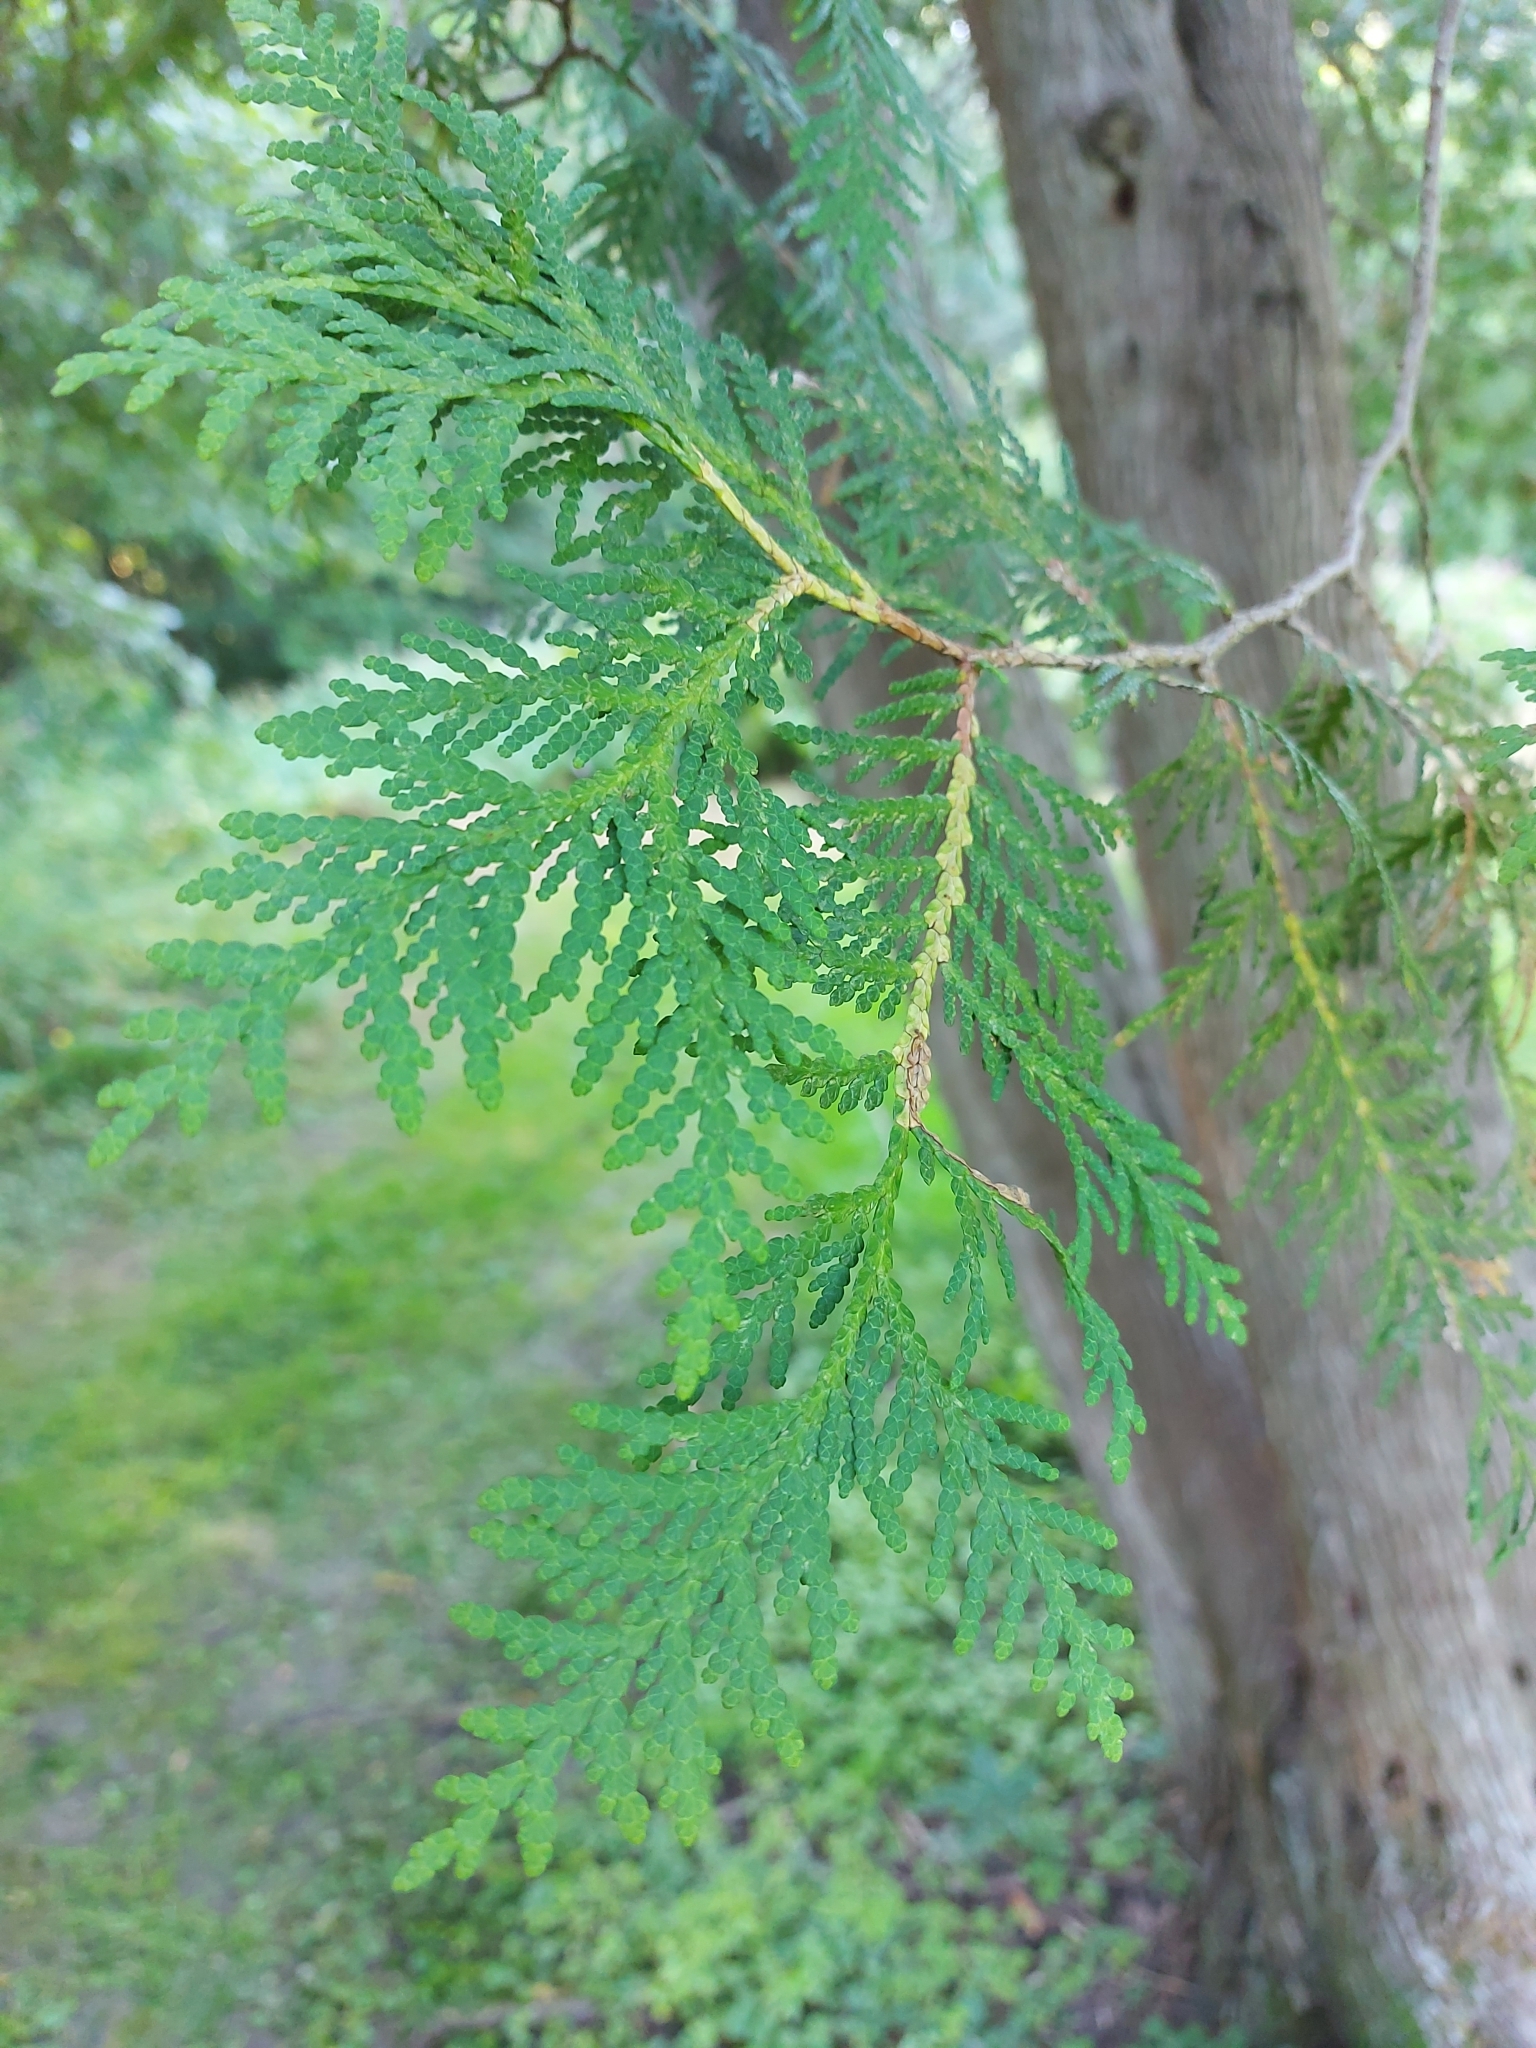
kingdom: Plantae
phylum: Tracheophyta
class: Pinopsida
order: Pinales
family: Cupressaceae
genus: Thuja
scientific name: Thuja occidentalis
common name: Northern white-cedar
